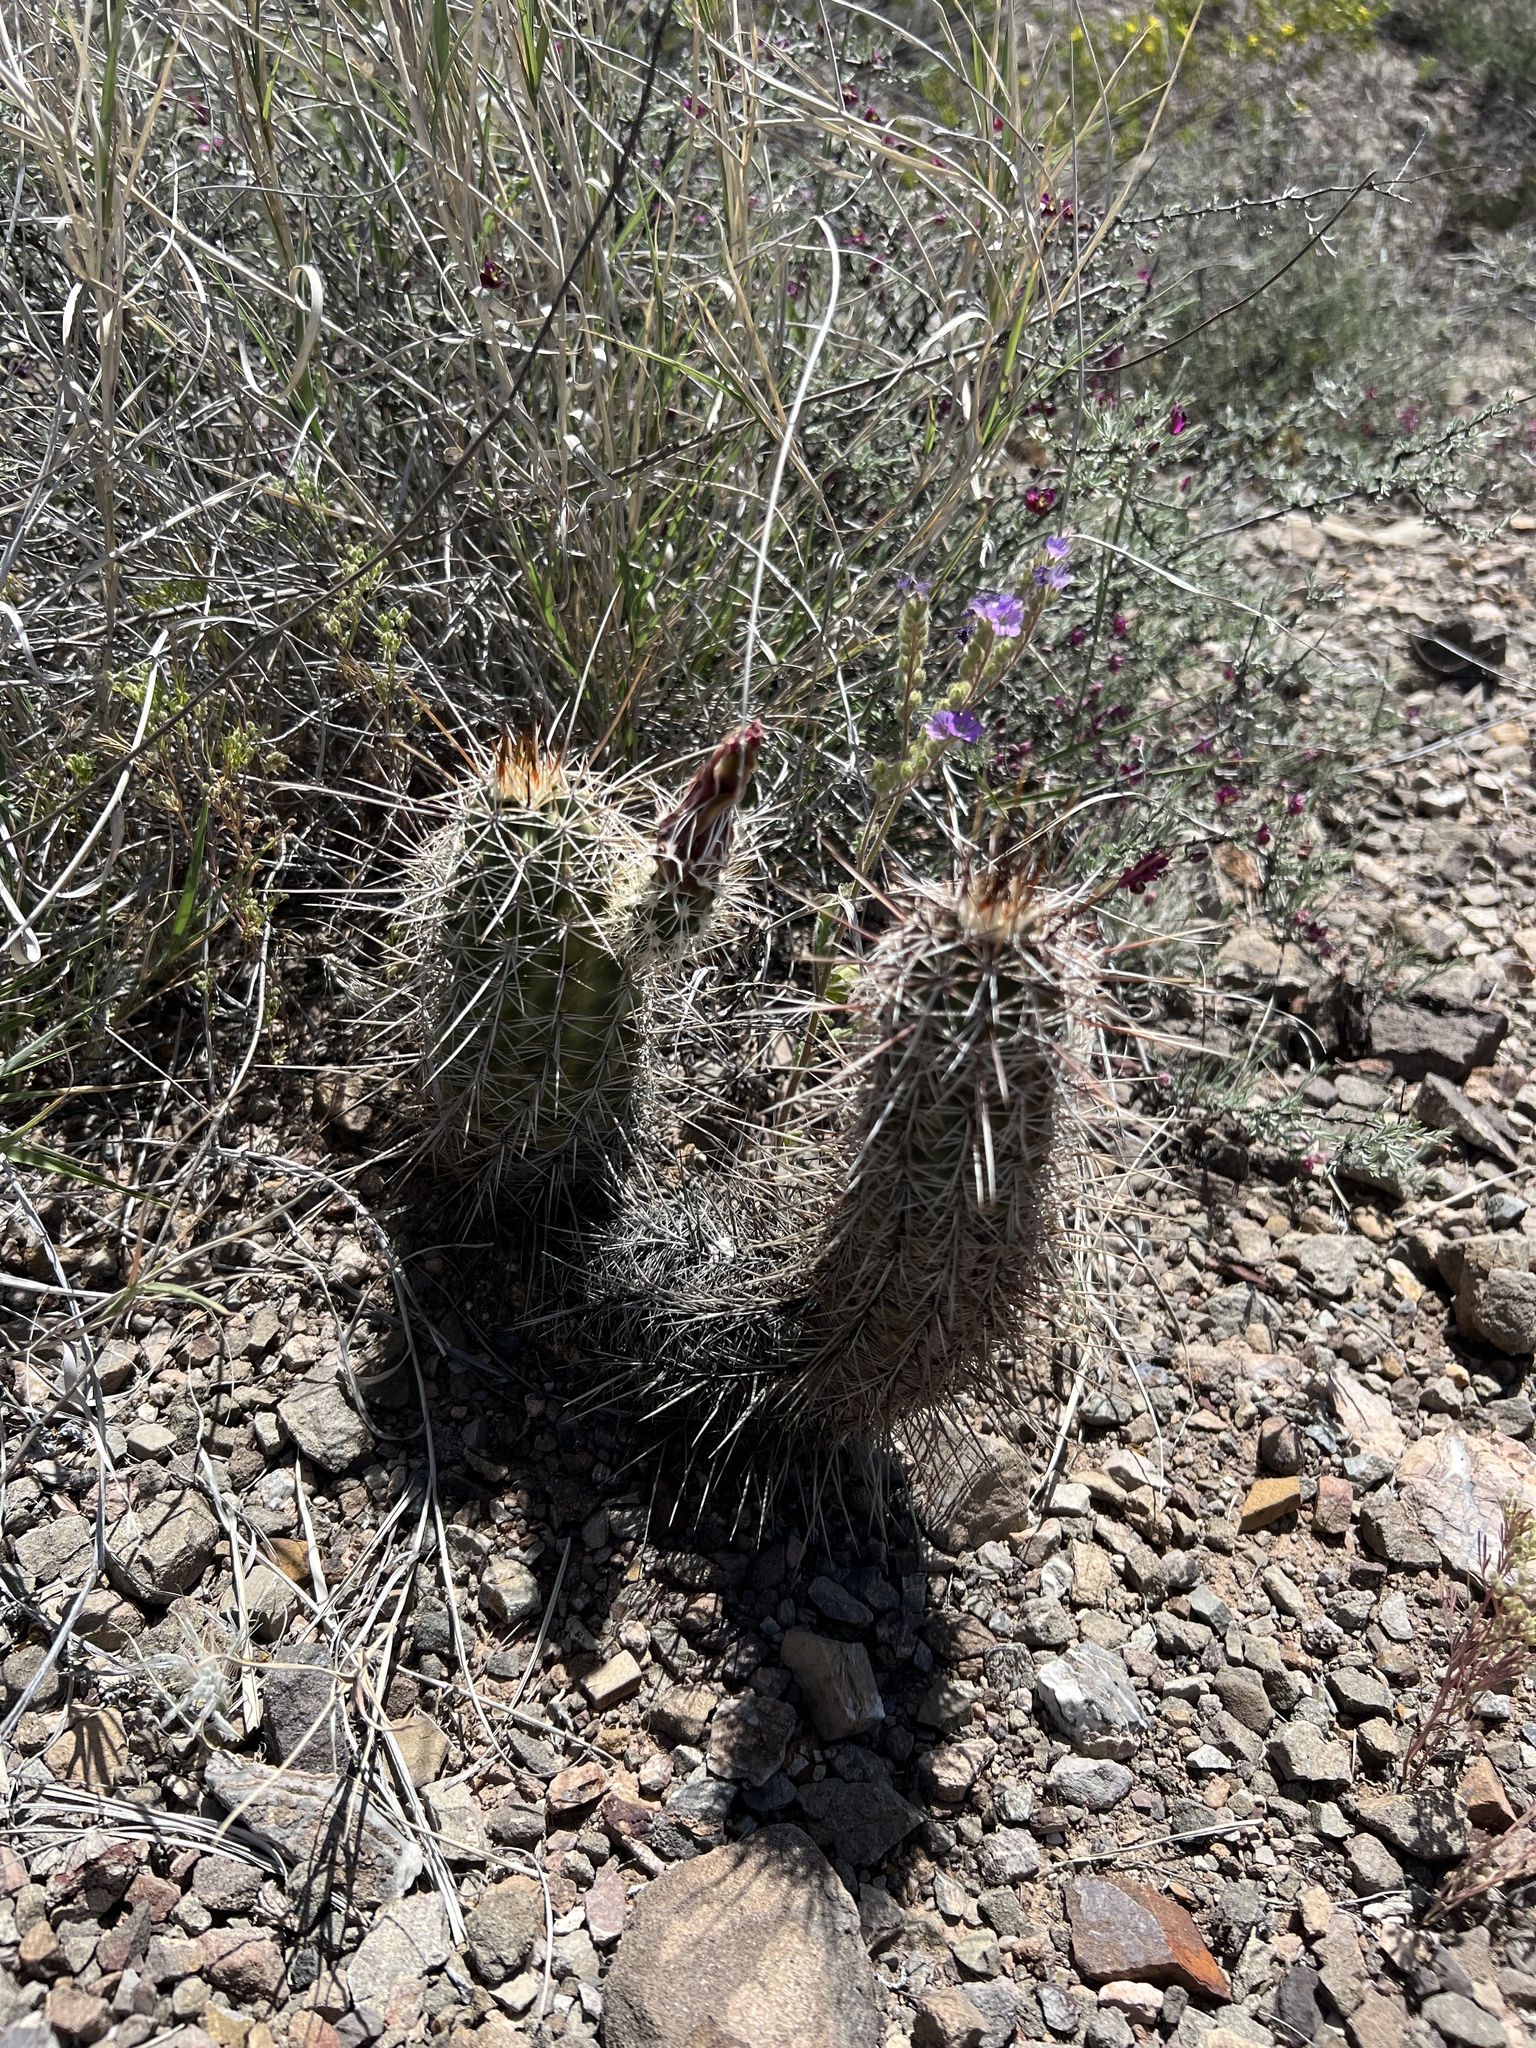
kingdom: Plantae
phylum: Tracheophyta
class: Magnoliopsida
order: Caryophyllales
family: Cactaceae
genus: Echinocereus
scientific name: Echinocereus fasciculatus
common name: Bundle hedgehog
